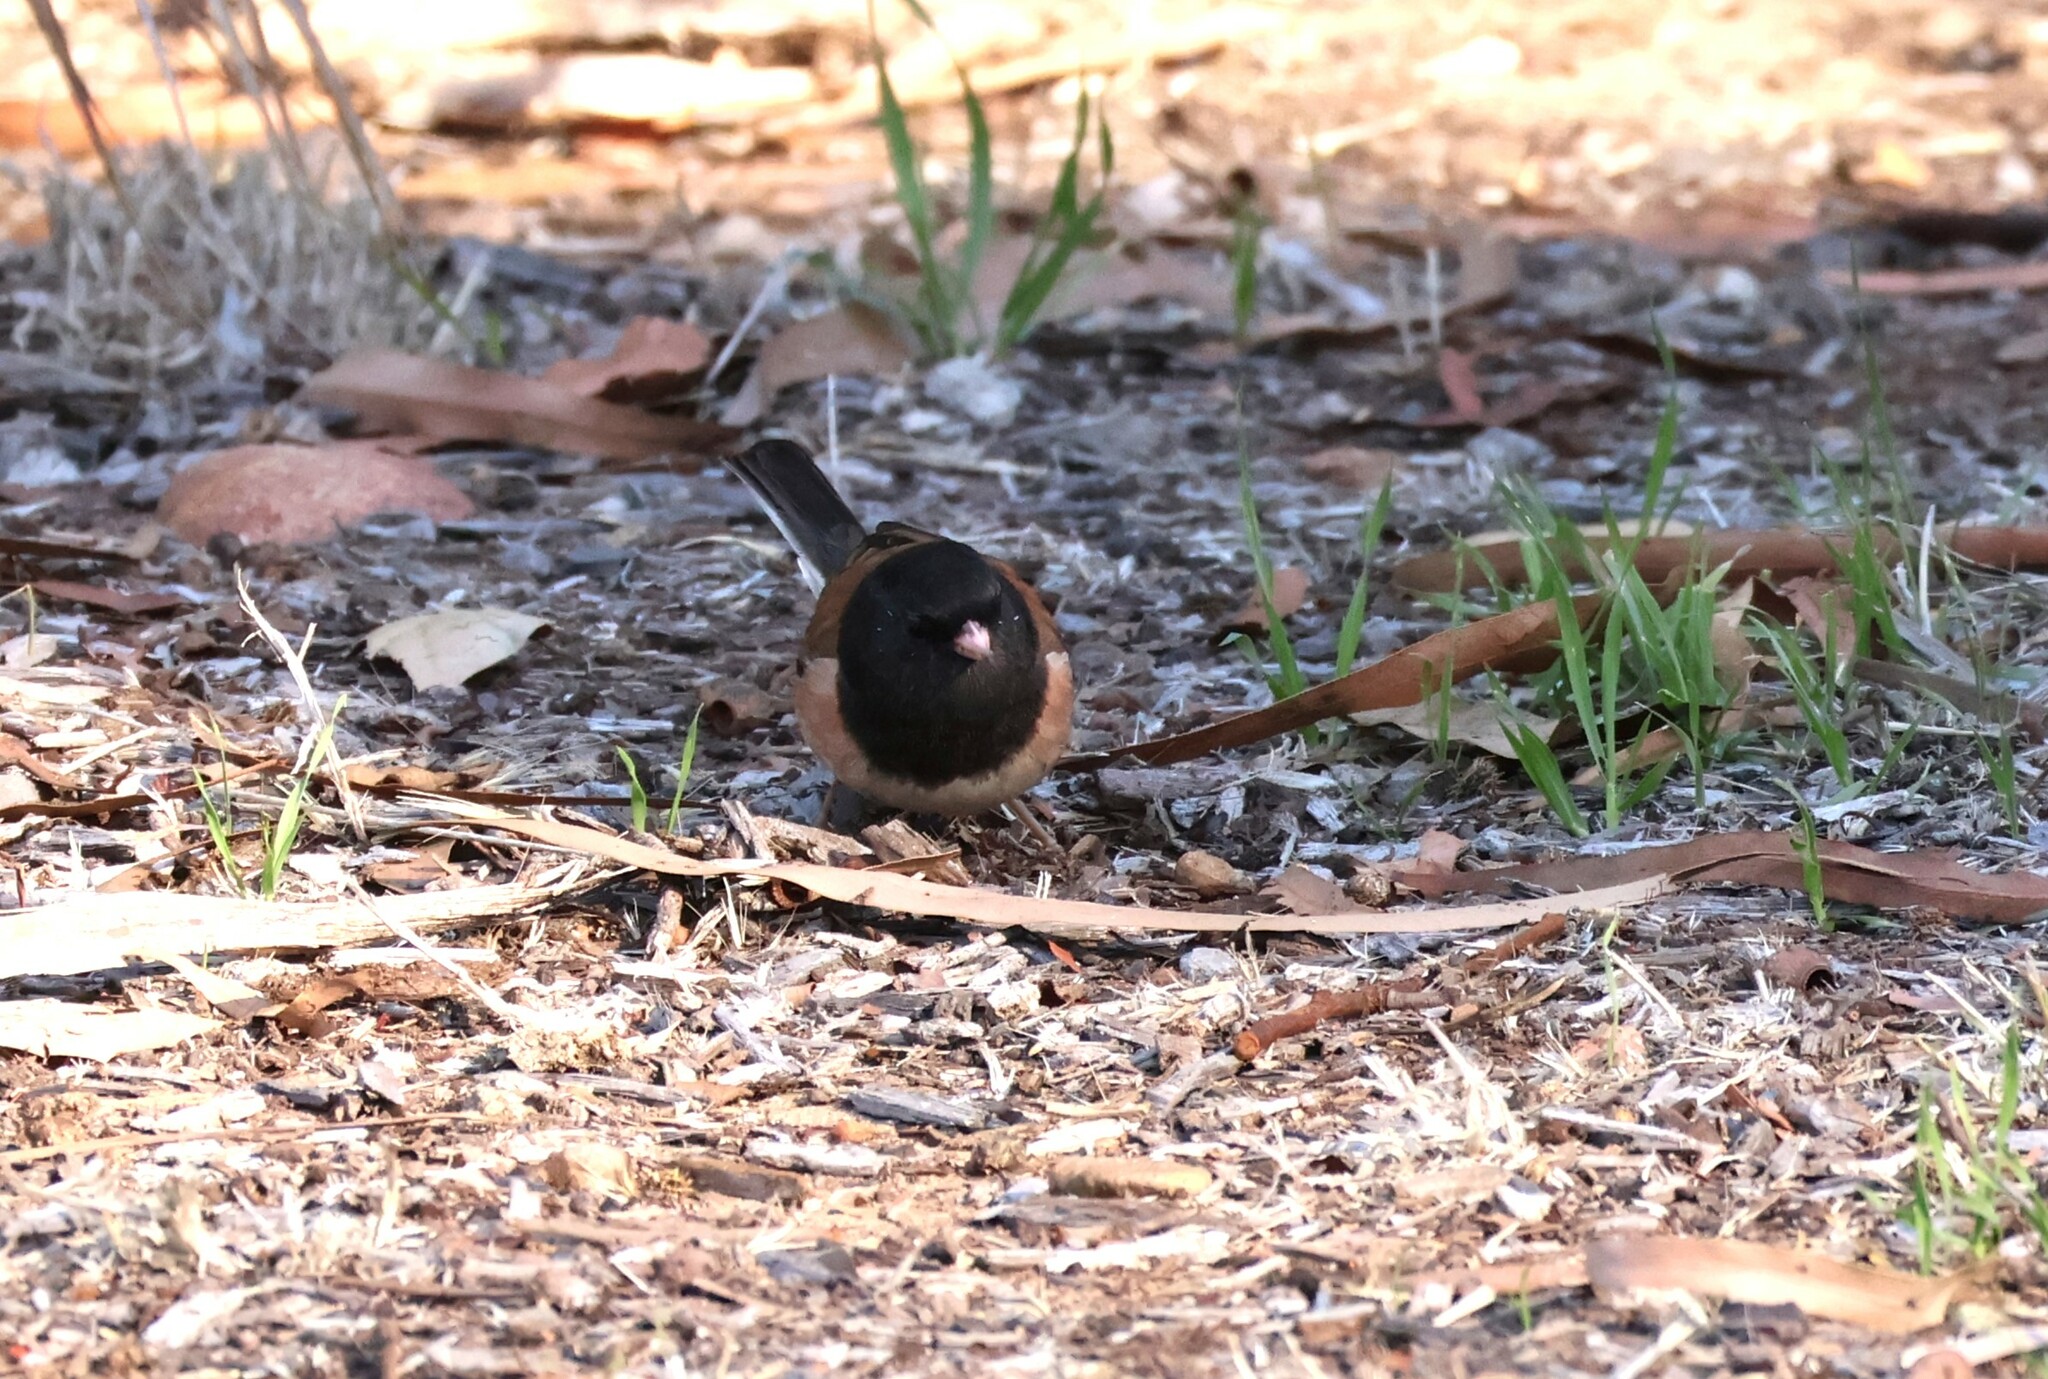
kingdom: Animalia
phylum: Chordata
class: Aves
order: Passeriformes
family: Passerellidae
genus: Junco
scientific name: Junco hyemalis
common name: Dark-eyed junco
